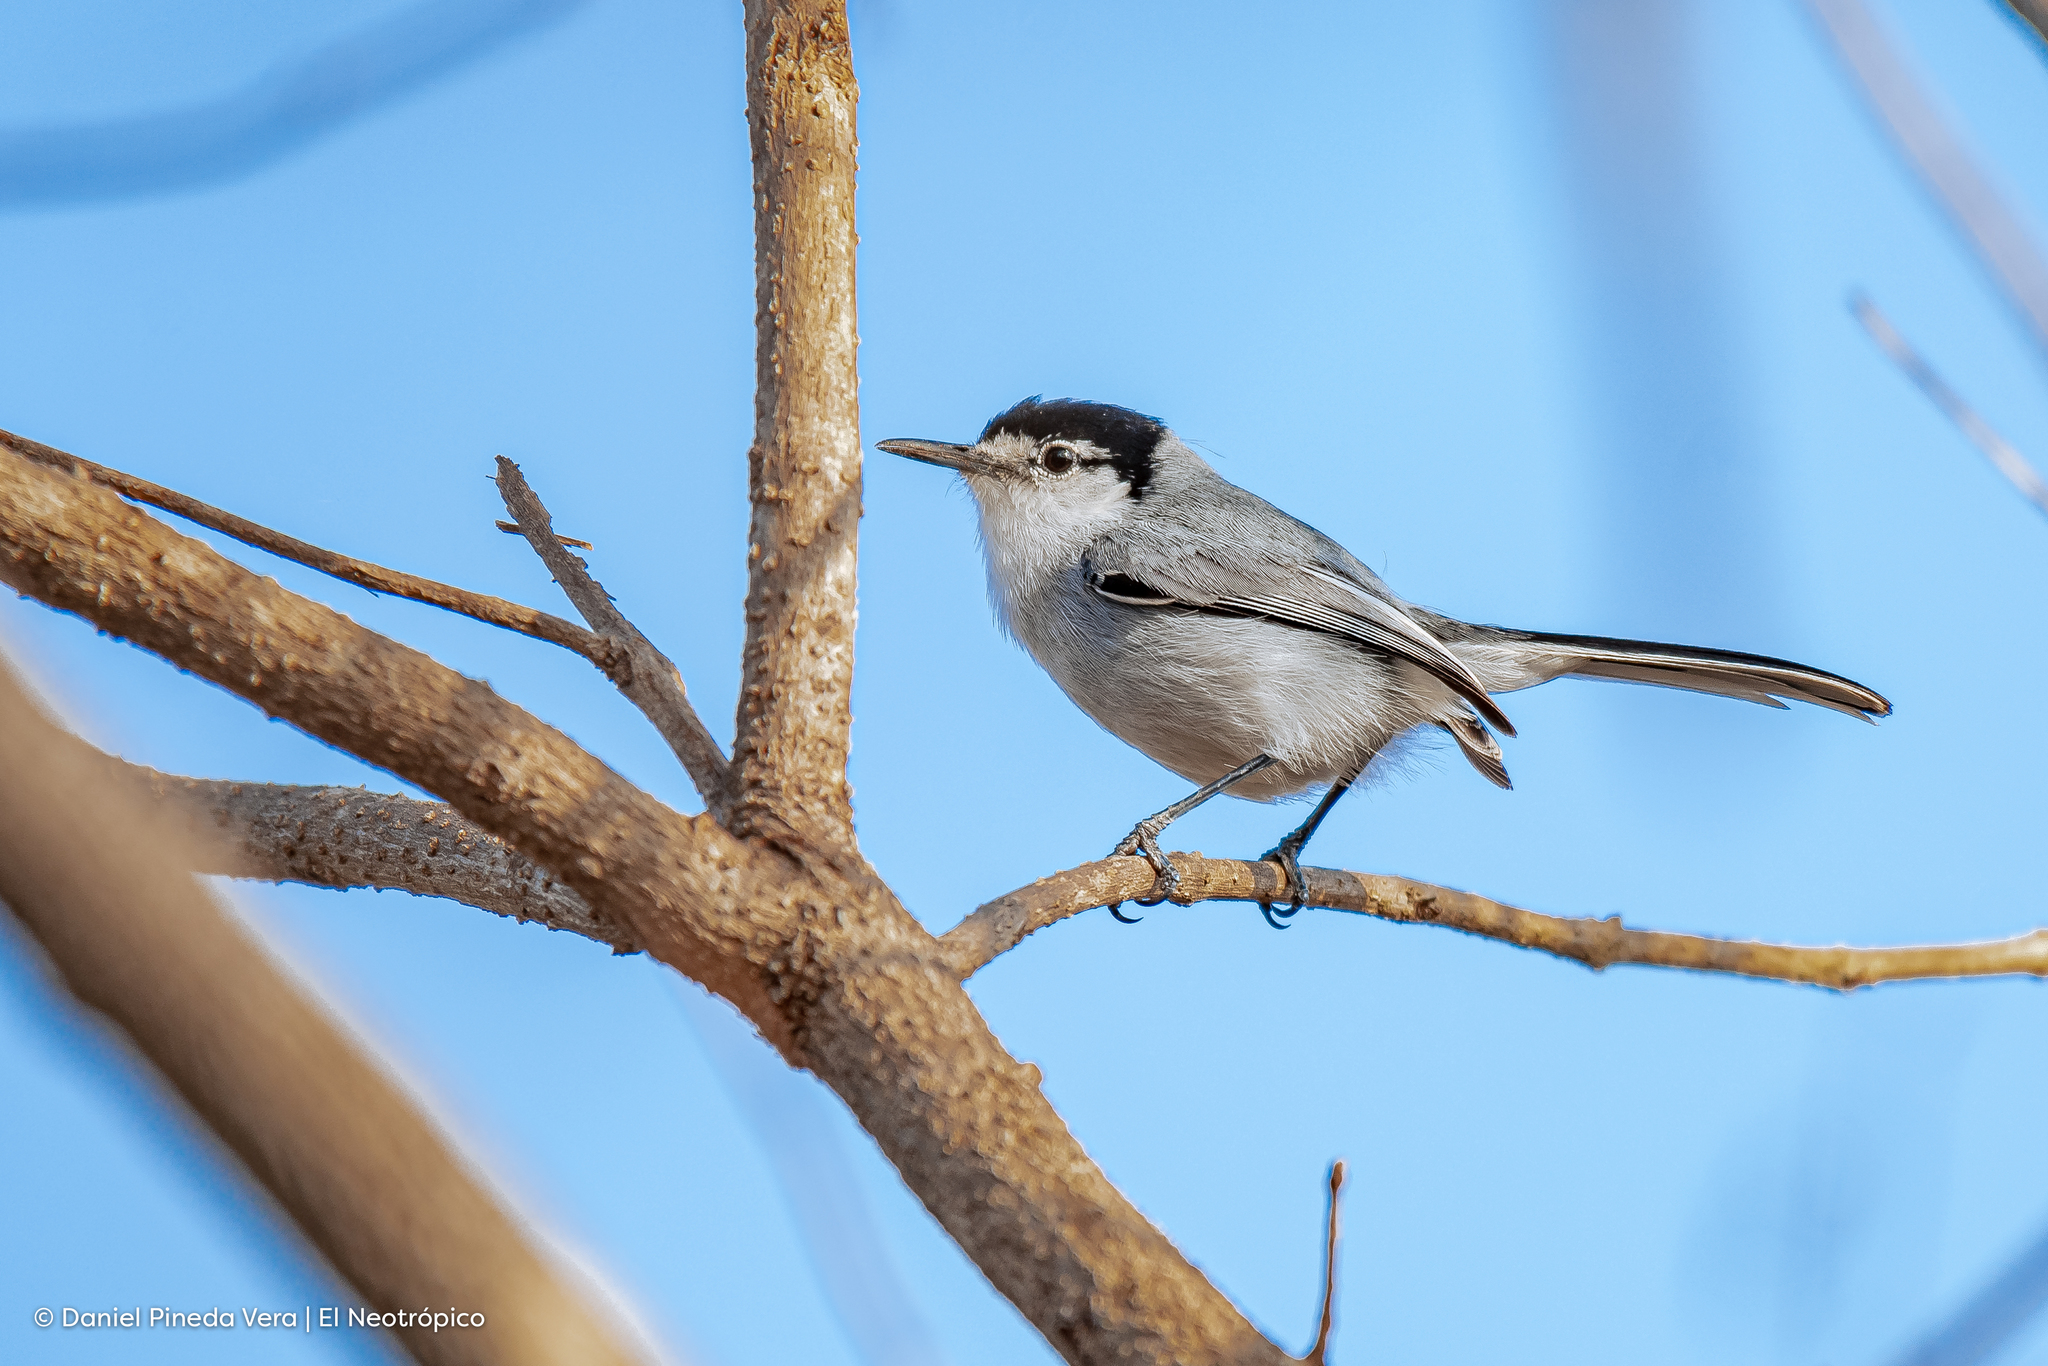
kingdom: Animalia
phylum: Chordata
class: Aves
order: Passeriformes
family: Polioptilidae
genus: Polioptila
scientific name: Polioptila albiloris
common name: White-lored gnatcatcher
